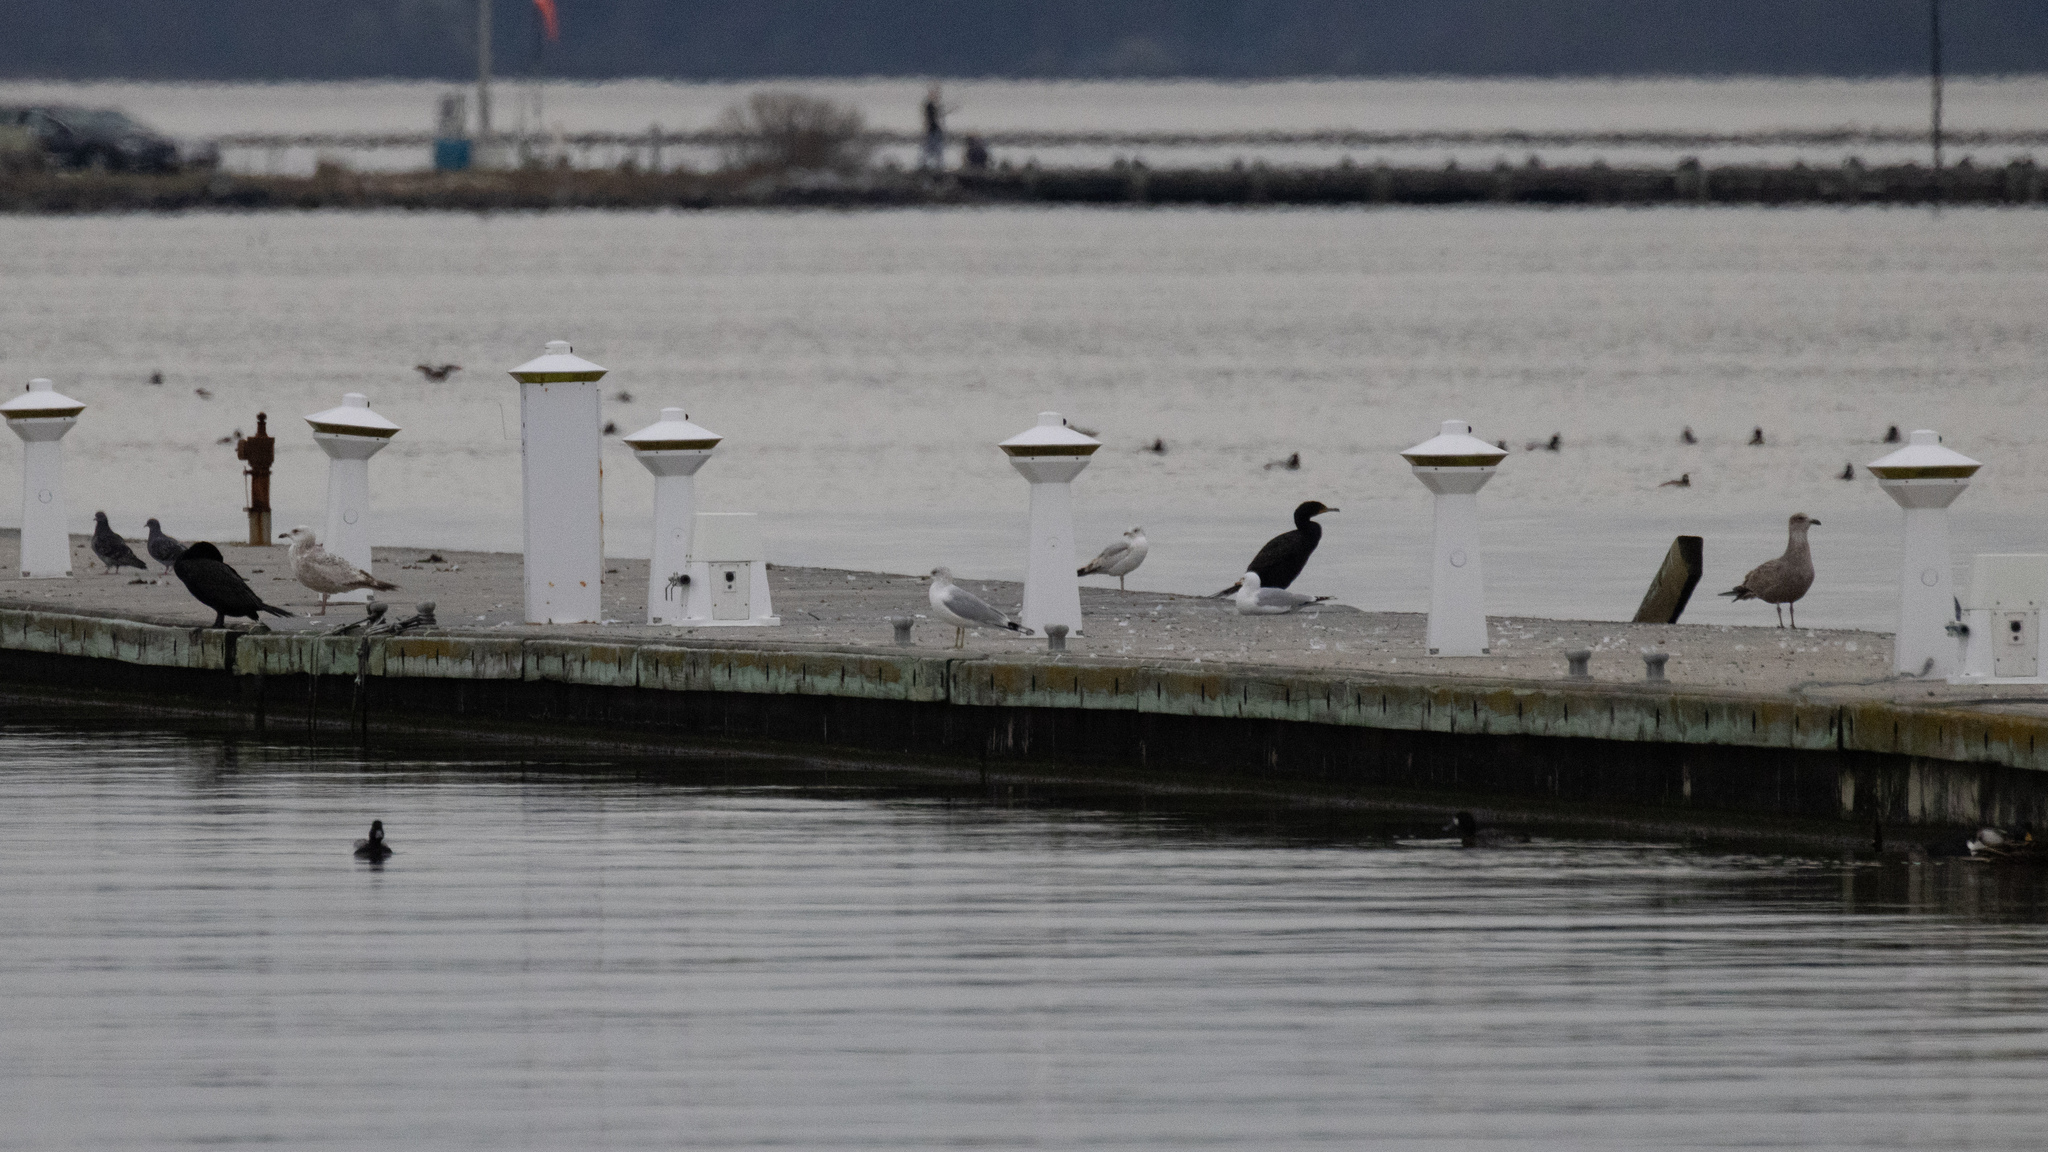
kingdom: Animalia
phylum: Chordata
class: Aves
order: Charadriiformes
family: Laridae
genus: Larus
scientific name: Larus argentatus
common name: Herring gull
